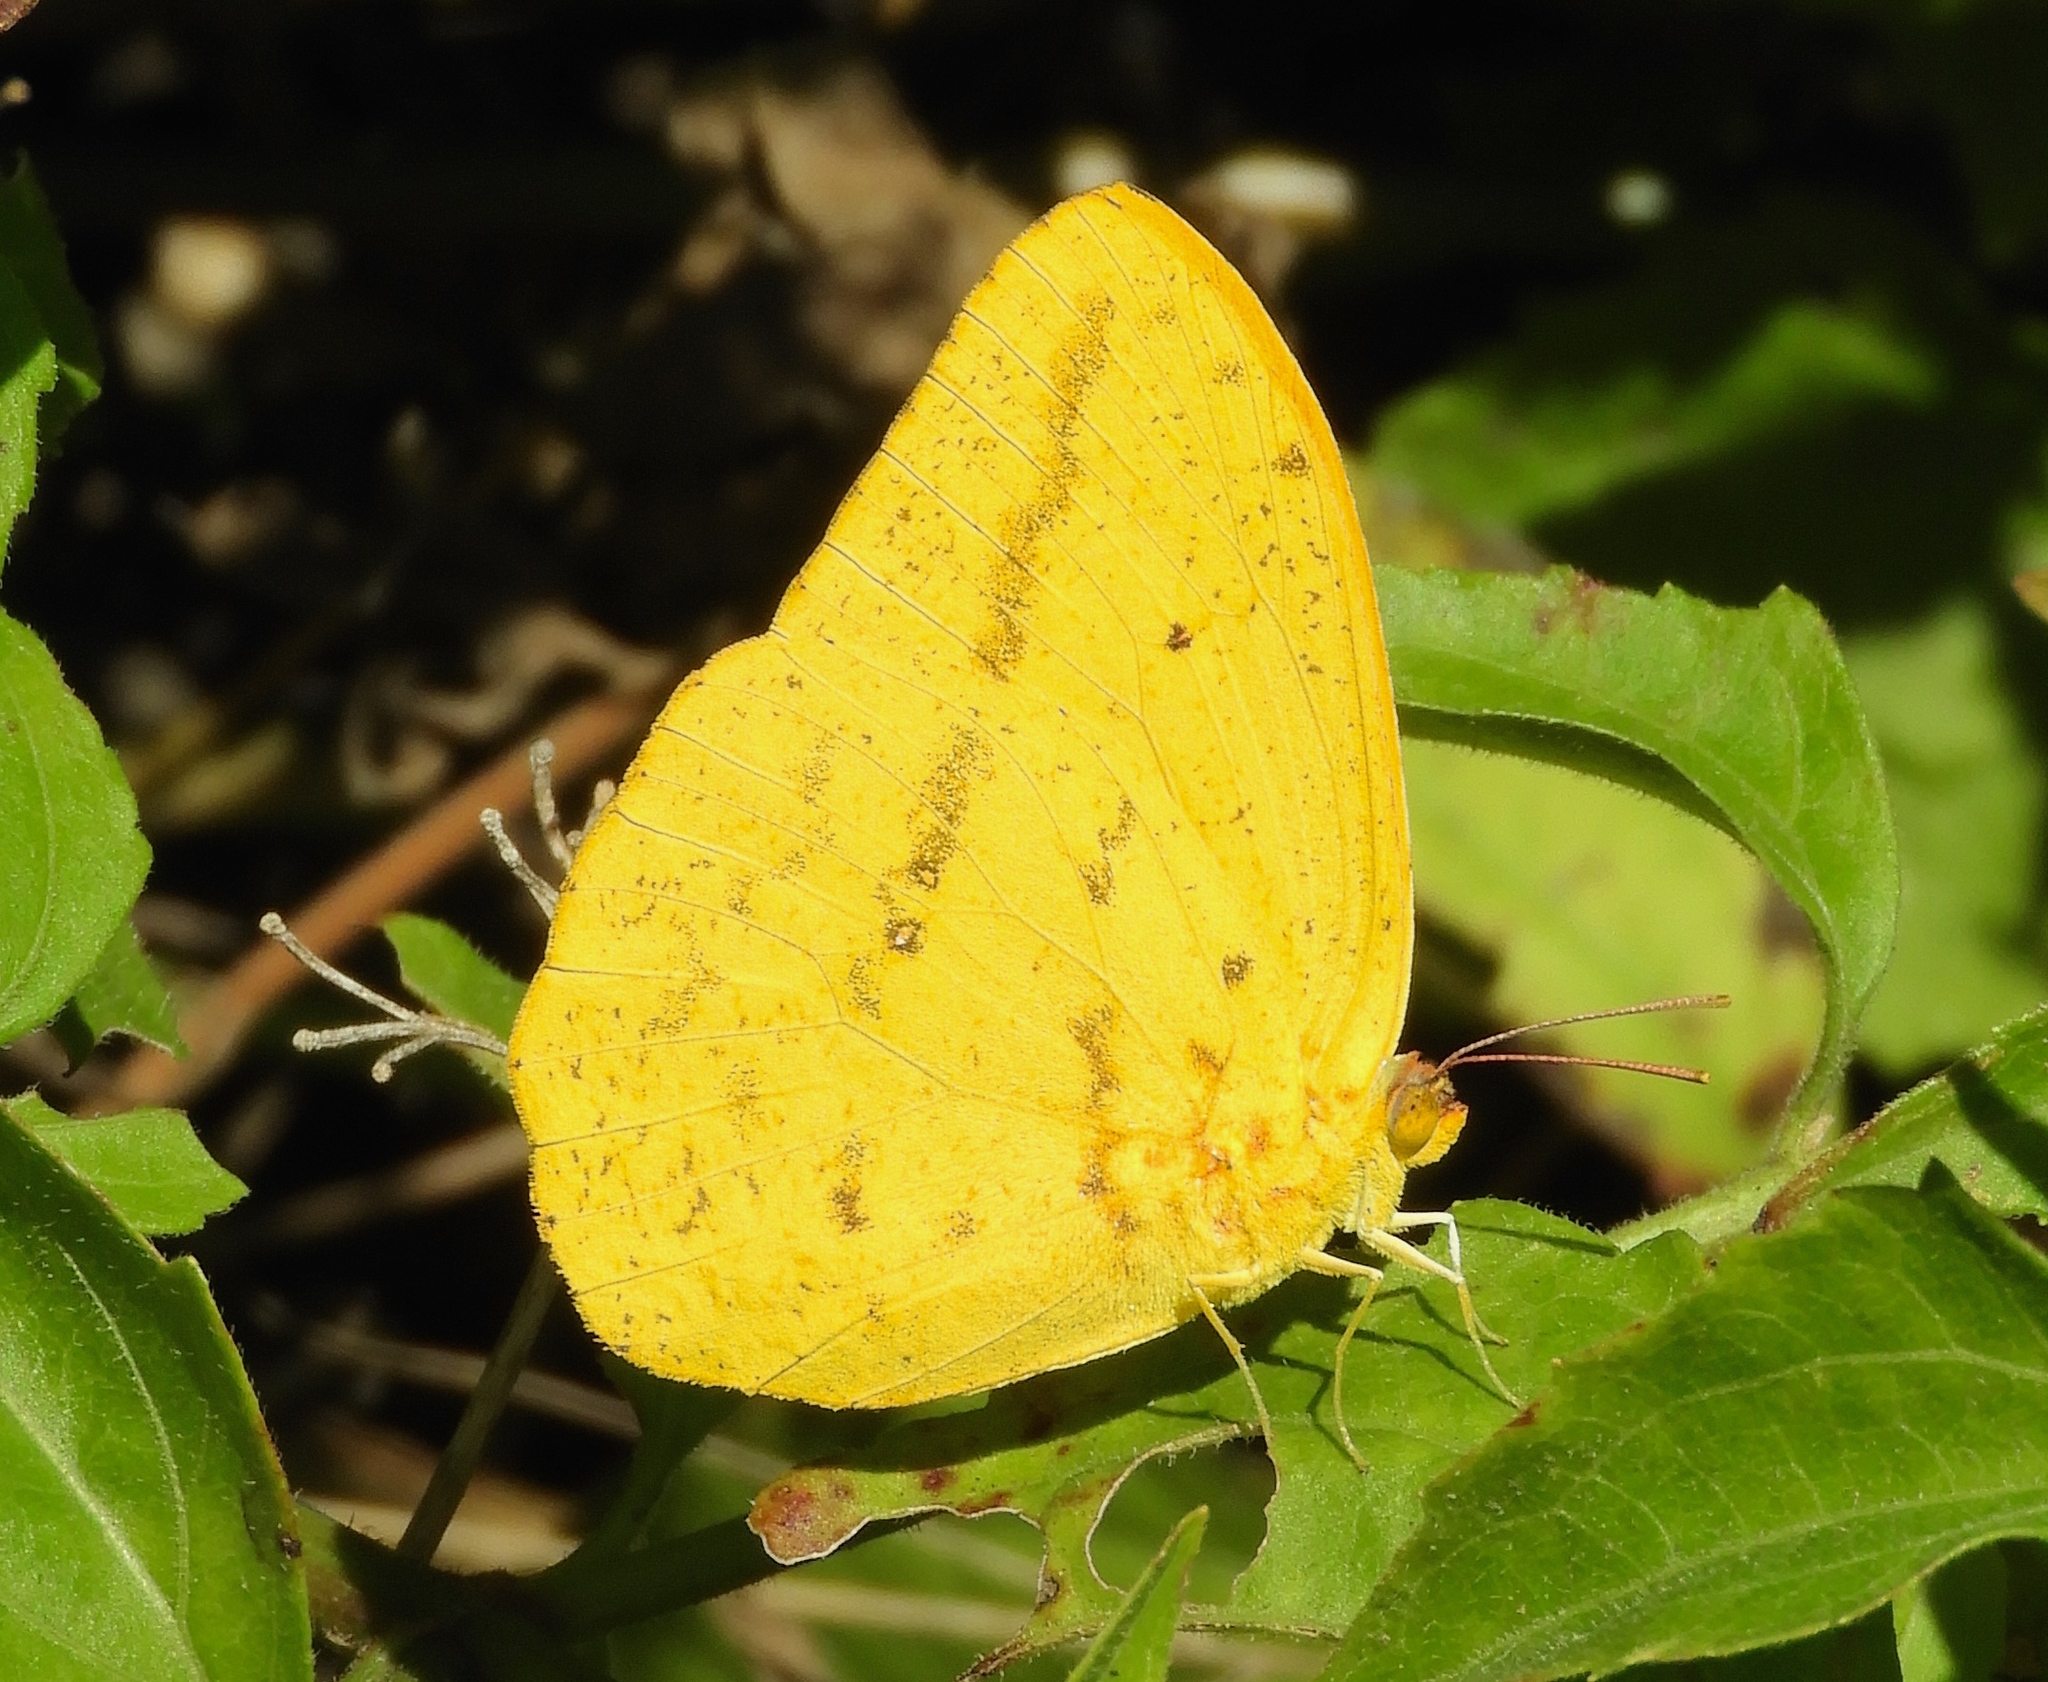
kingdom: Animalia
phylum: Arthropoda
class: Insecta
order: Lepidoptera
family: Pieridae
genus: Phoebis
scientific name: Phoebis agarithe
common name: Large orange sulphur
